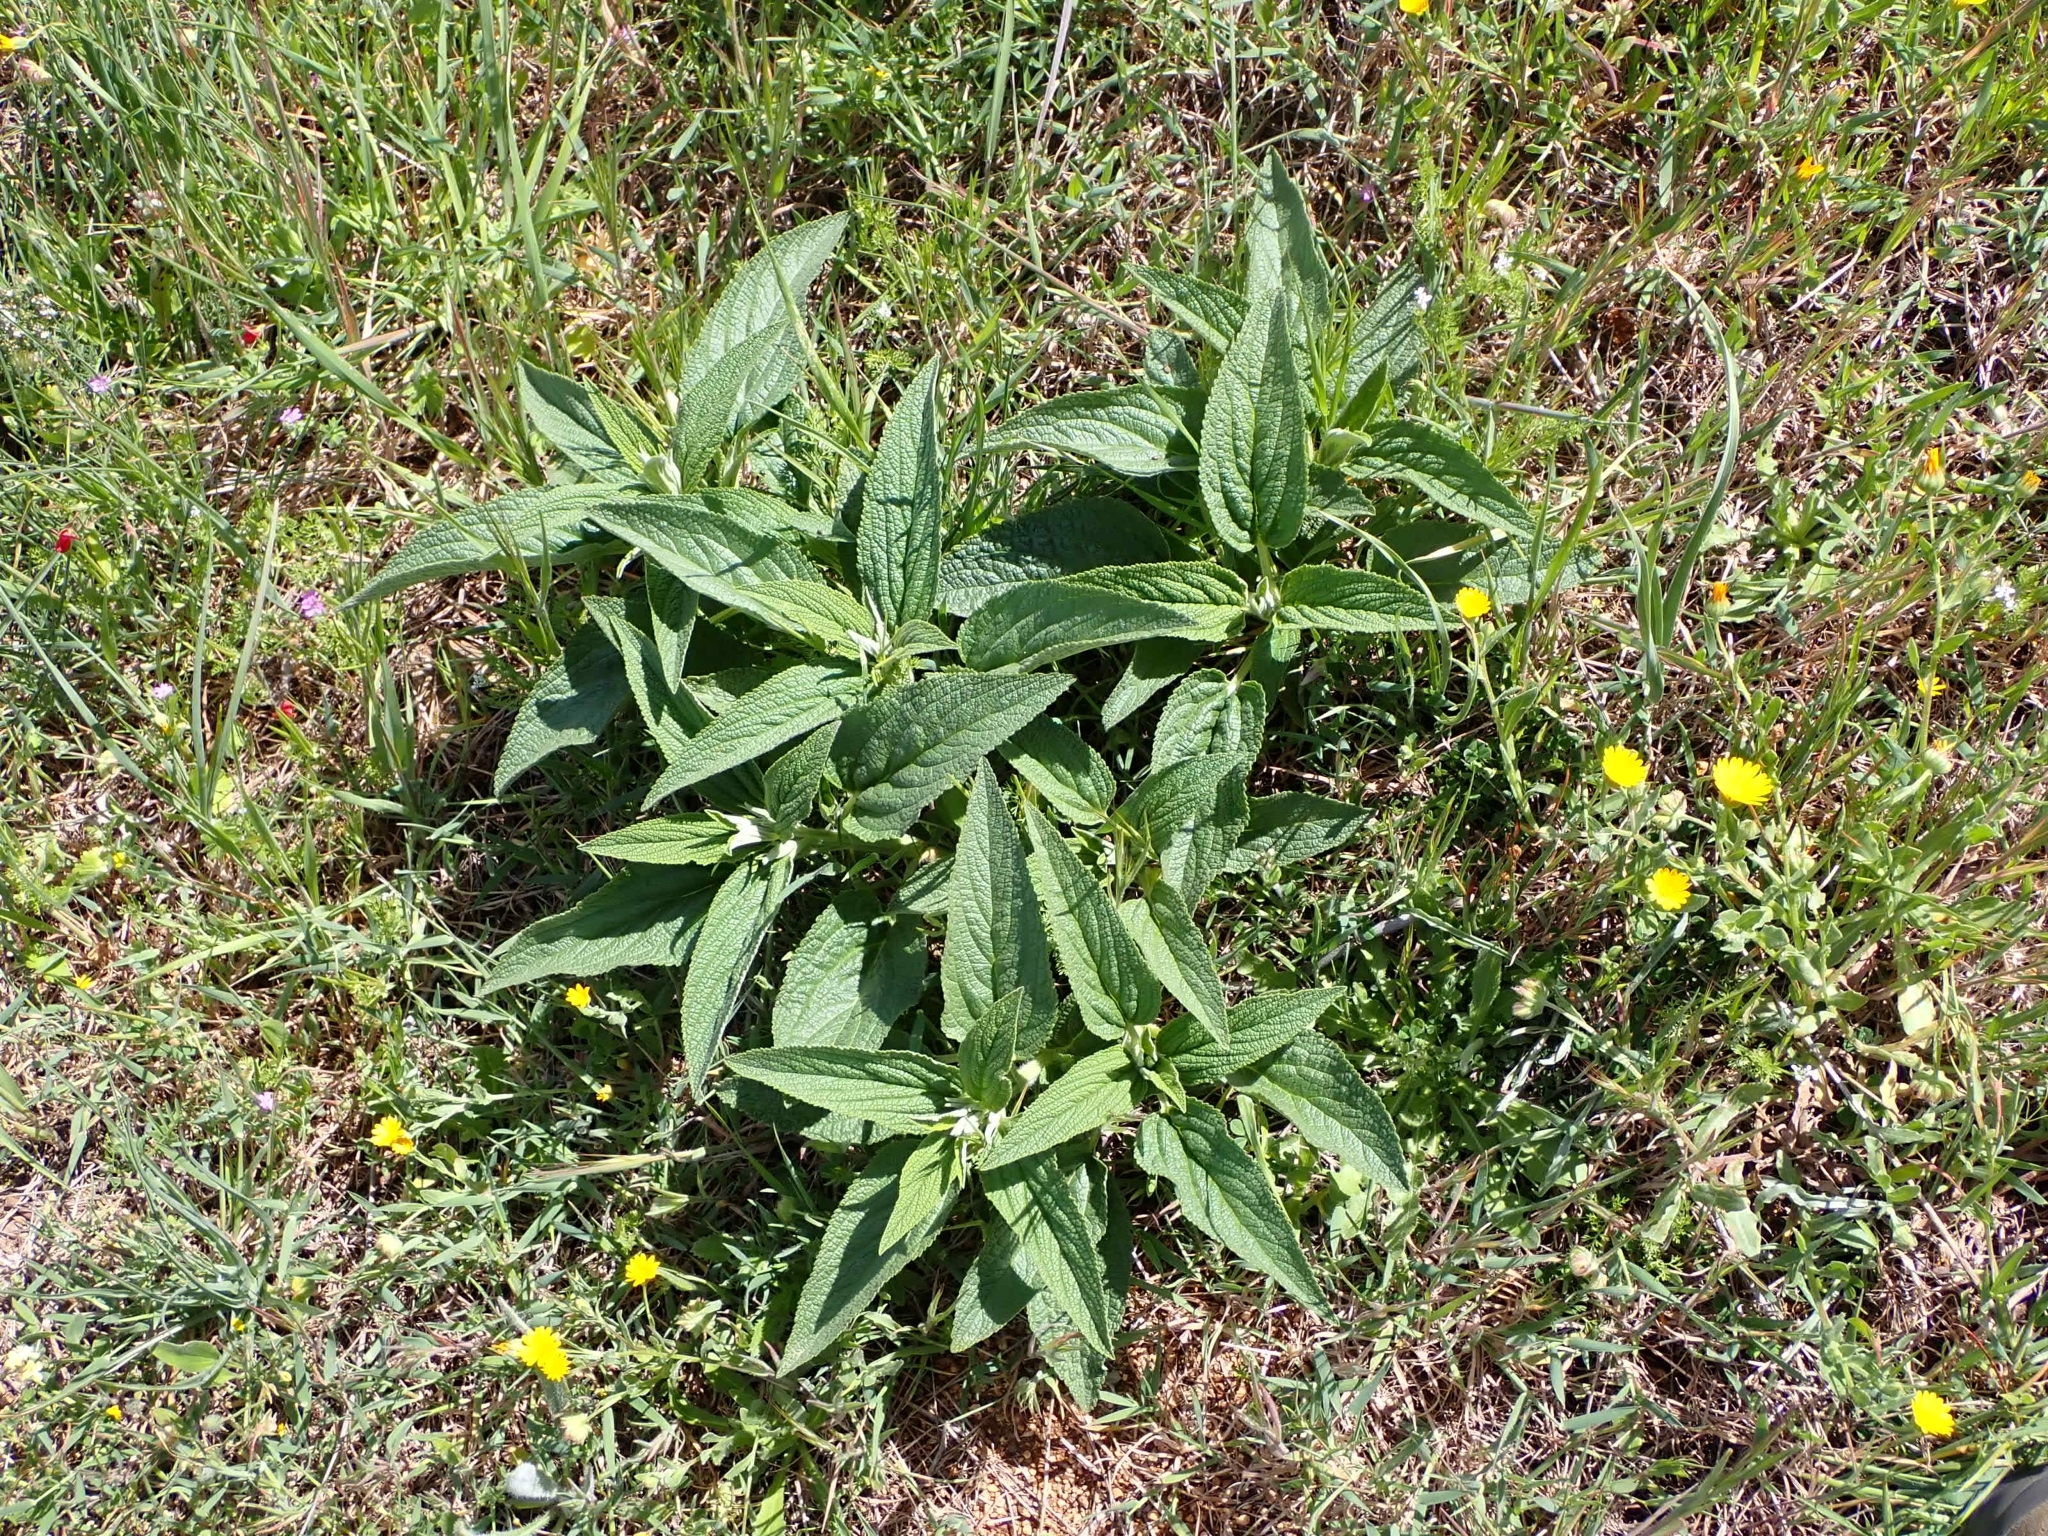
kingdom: Plantae
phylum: Tracheophyta
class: Magnoliopsida
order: Lamiales
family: Lamiaceae
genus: Phlomis
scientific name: Phlomis herba-venti
